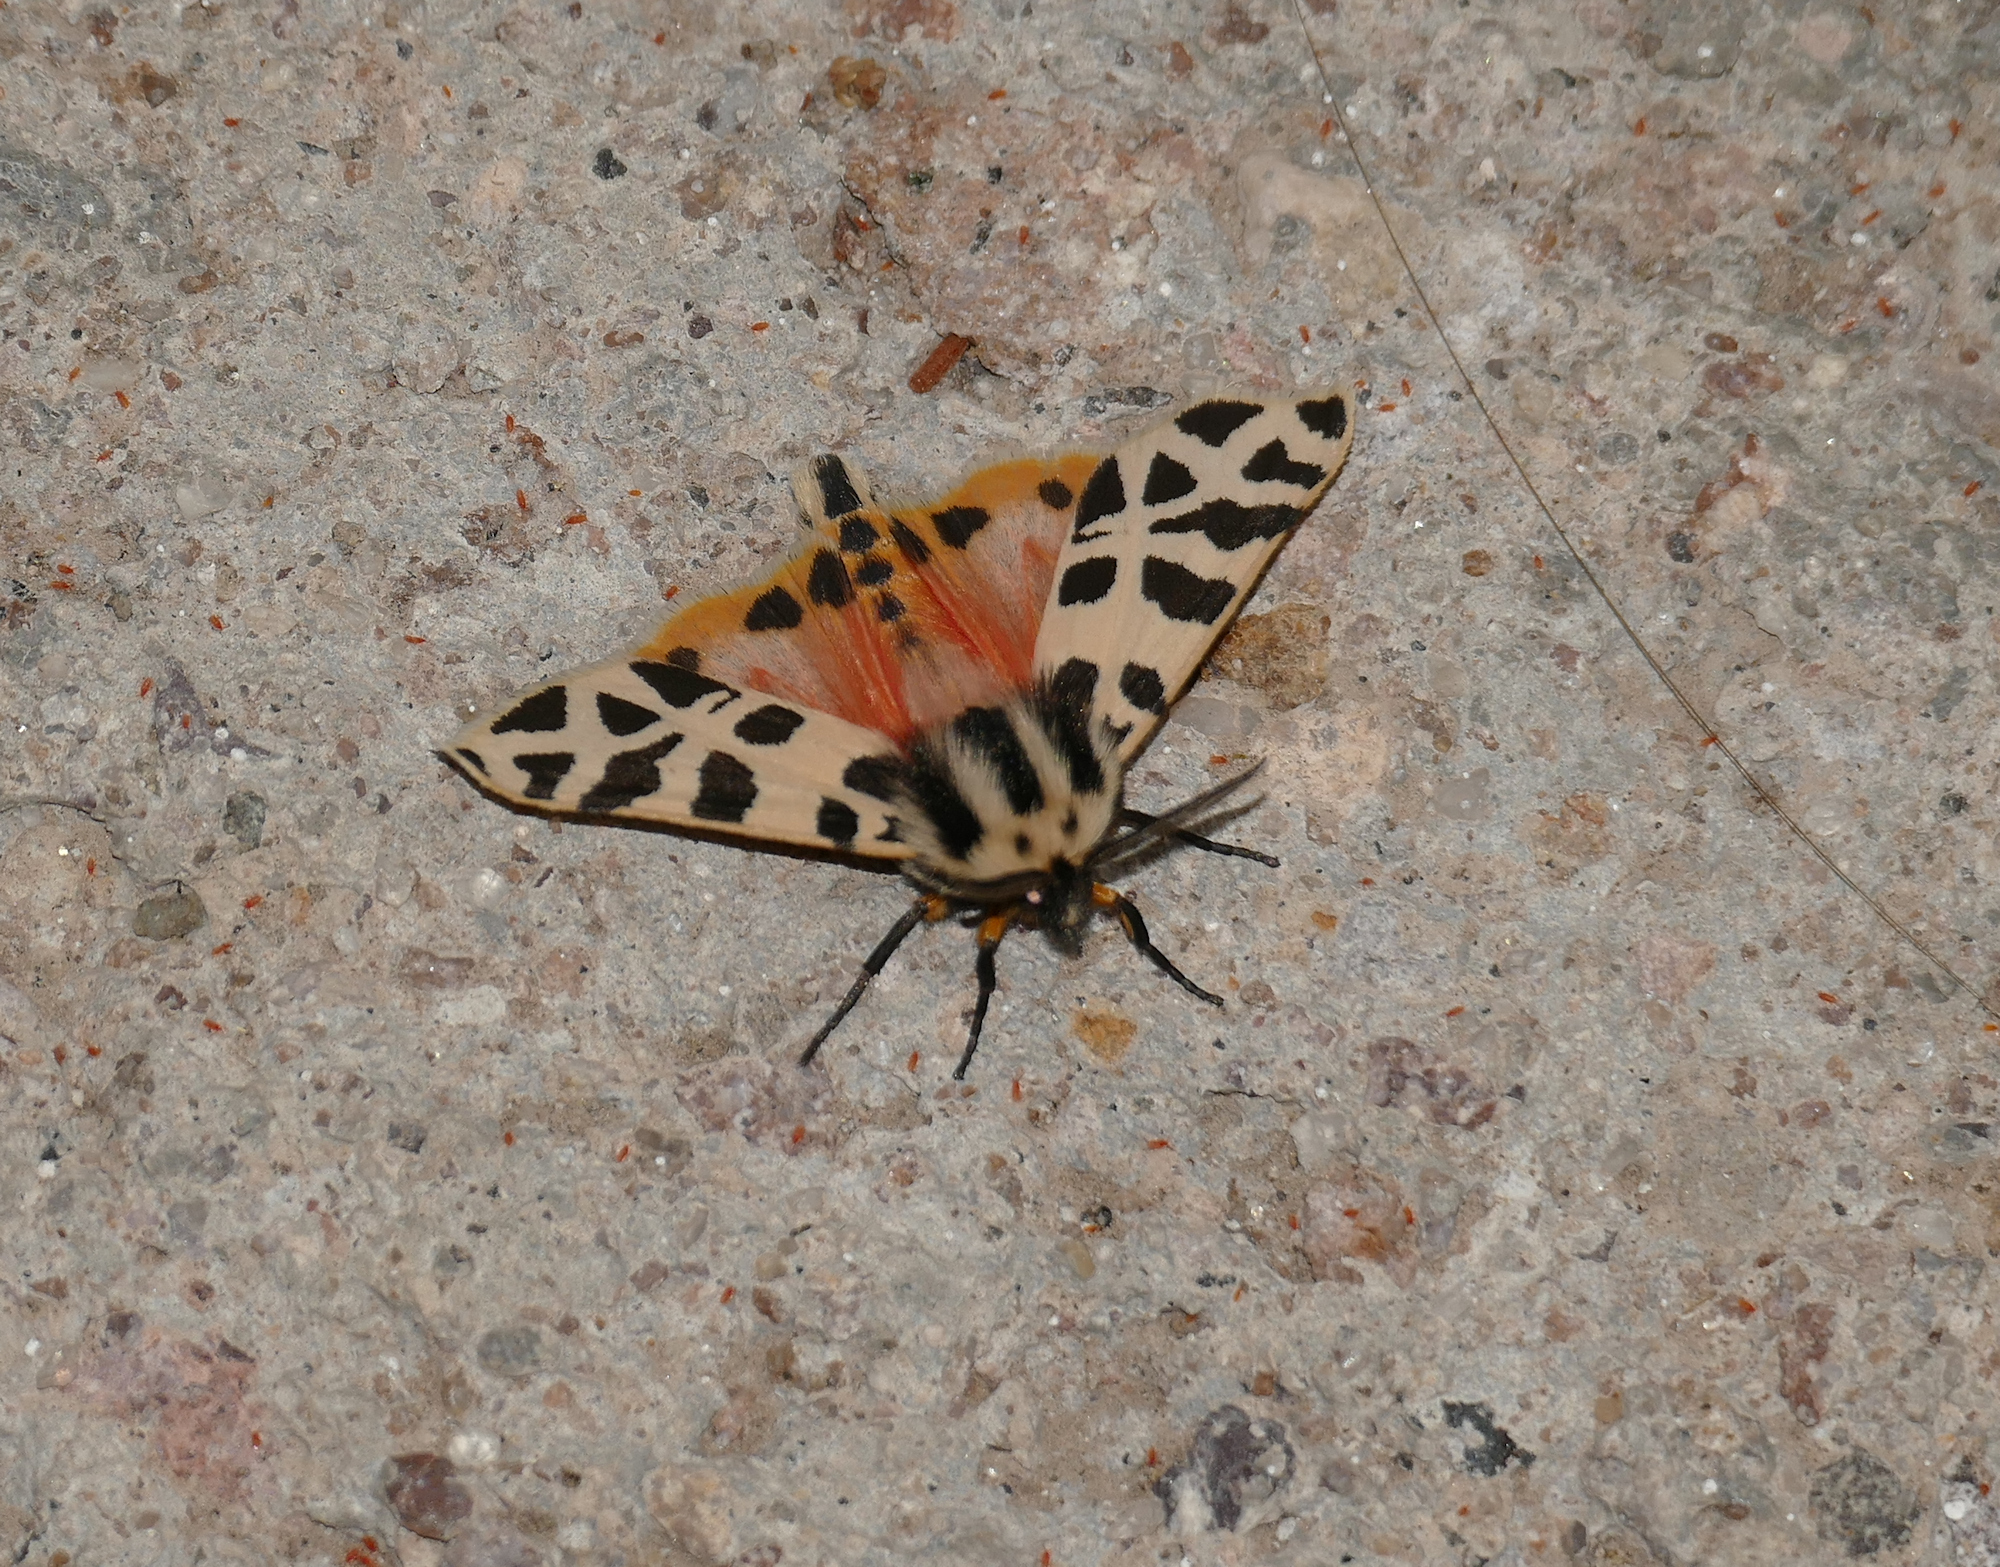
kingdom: Animalia
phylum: Arthropoda
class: Insecta
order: Lepidoptera
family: Erebidae
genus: Apantesis
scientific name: Apantesis incorrupta
